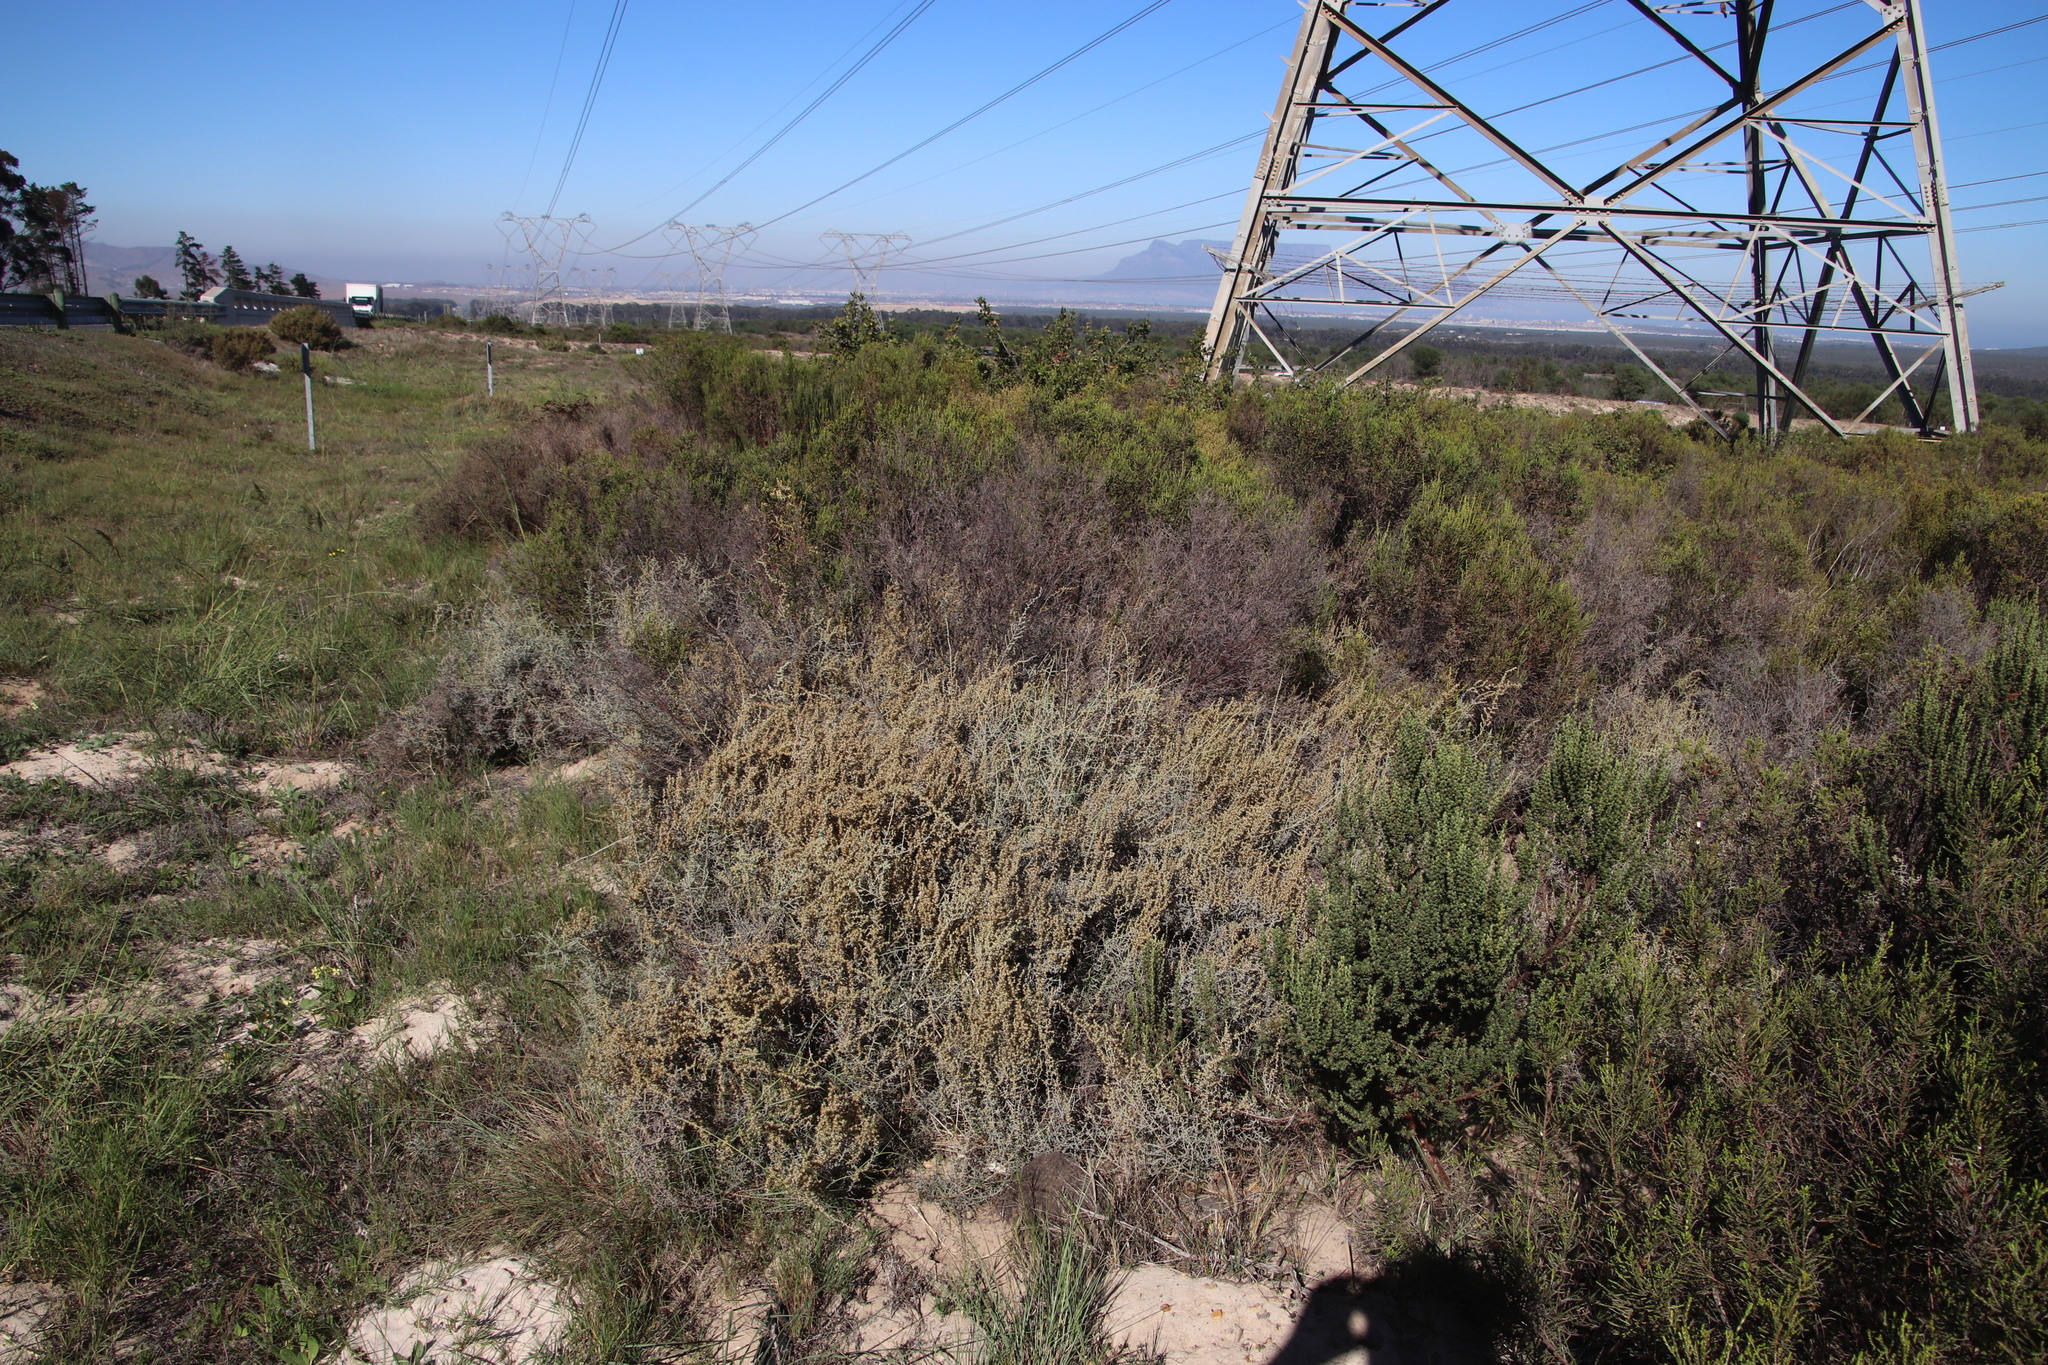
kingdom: Plantae
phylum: Tracheophyta
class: Magnoliopsida
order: Asterales
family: Asteraceae
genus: Seriphium
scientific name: Seriphium plumosum
